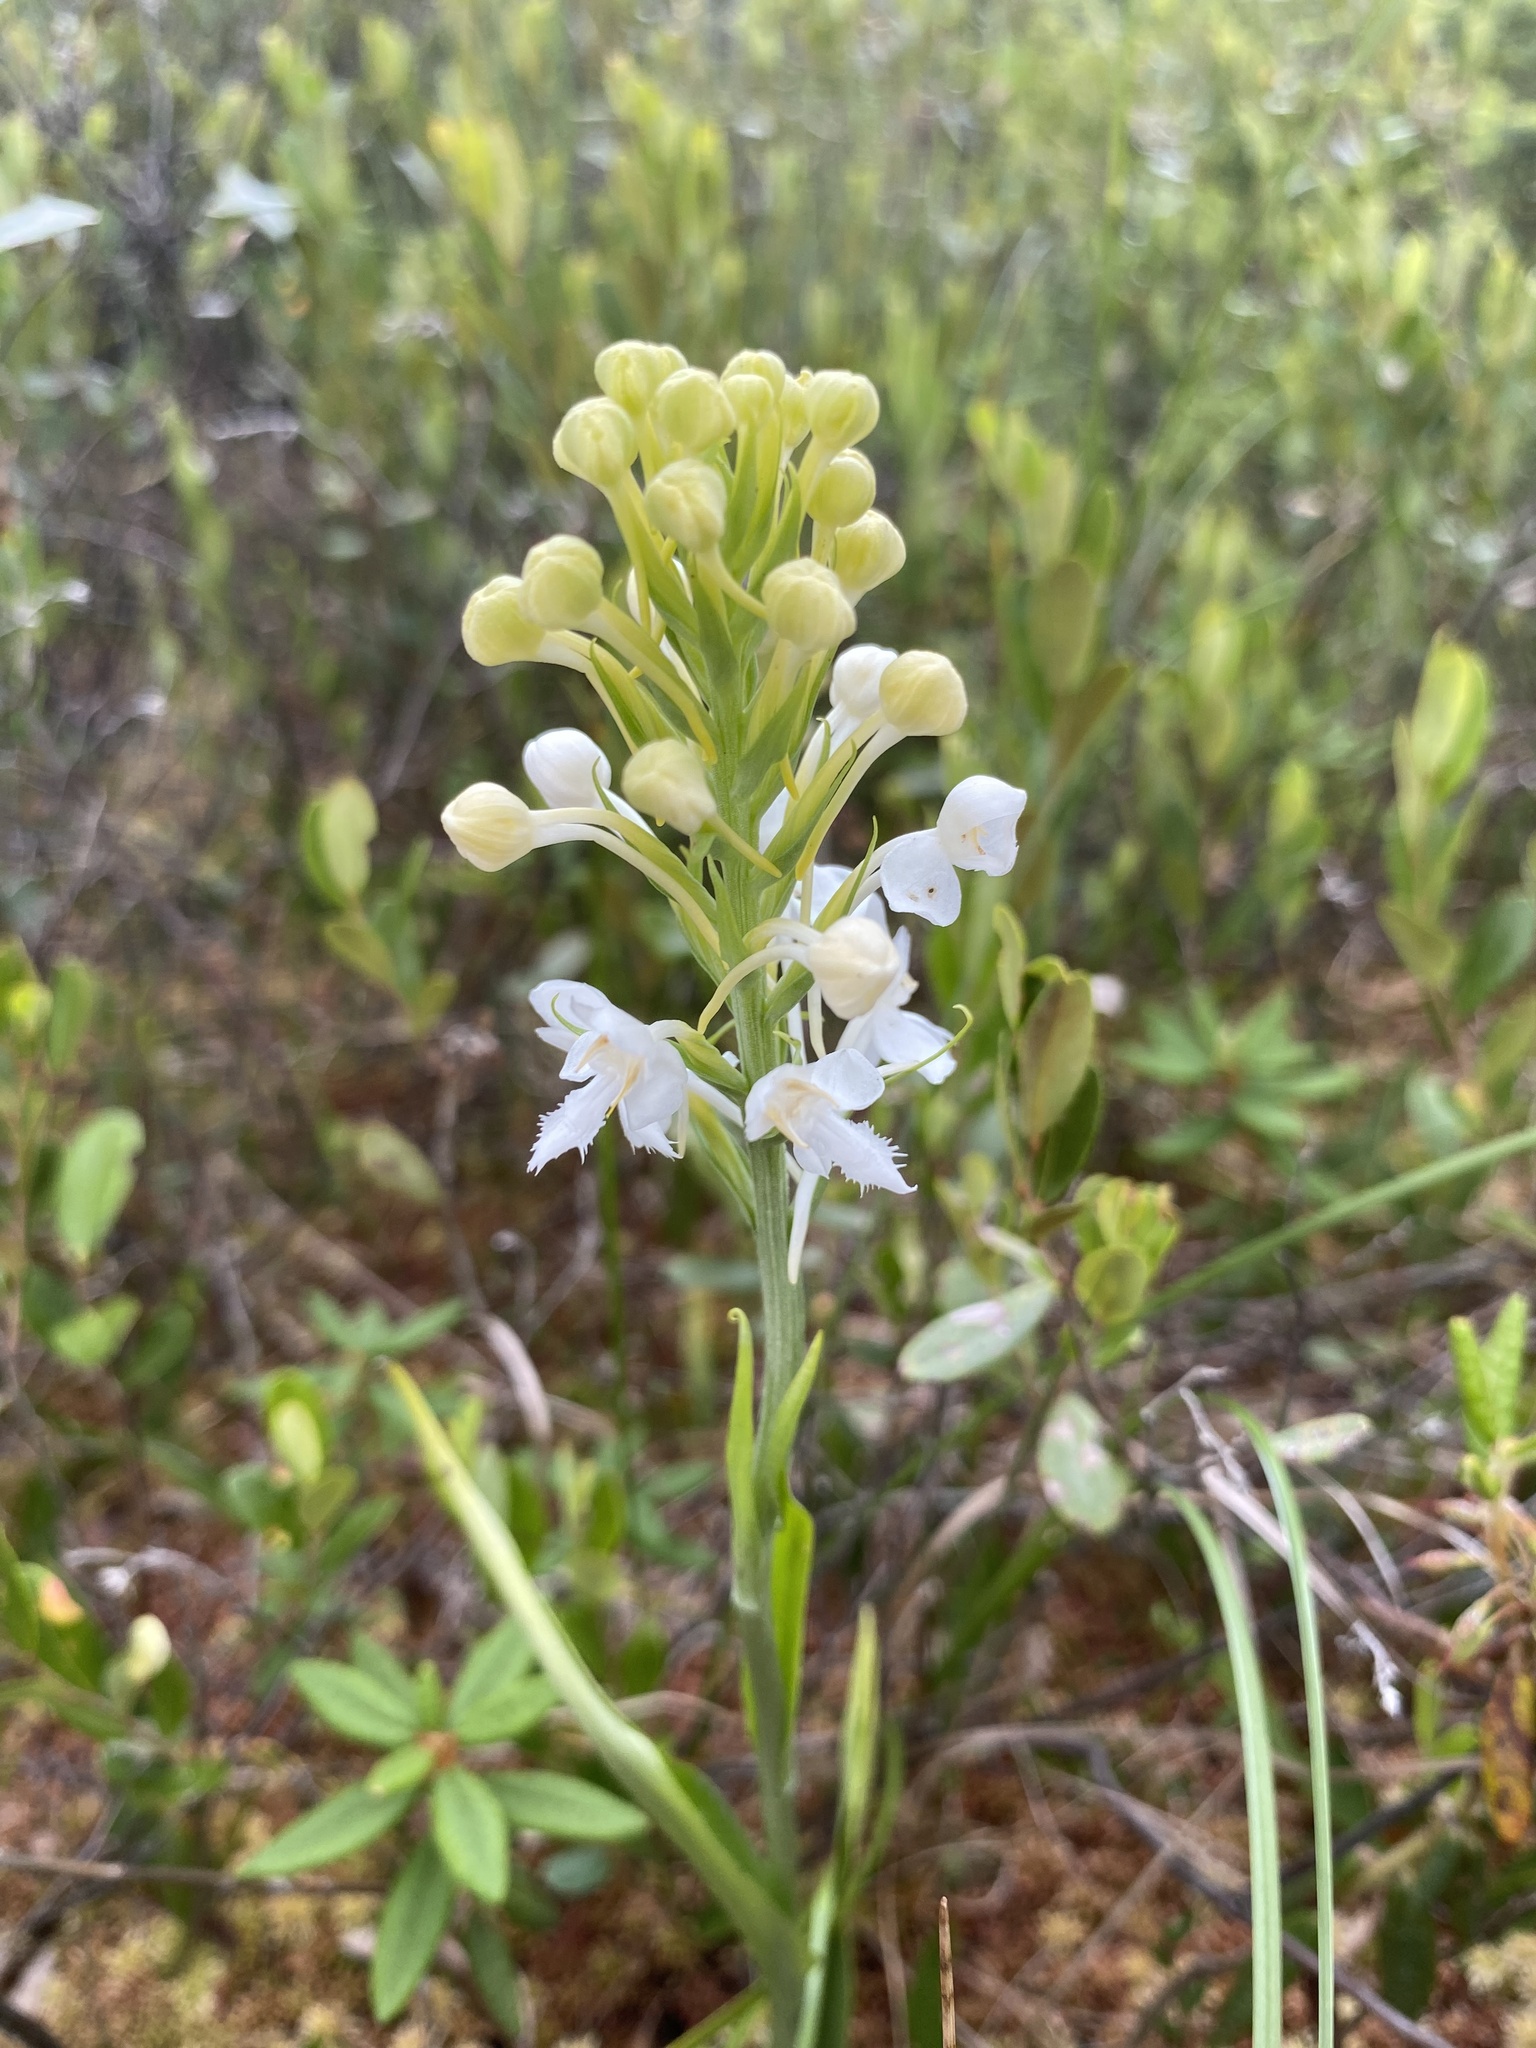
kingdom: Plantae
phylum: Tracheophyta
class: Liliopsida
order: Asparagales
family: Orchidaceae
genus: Platanthera
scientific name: Platanthera blephariglottis
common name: White fringed orchid
